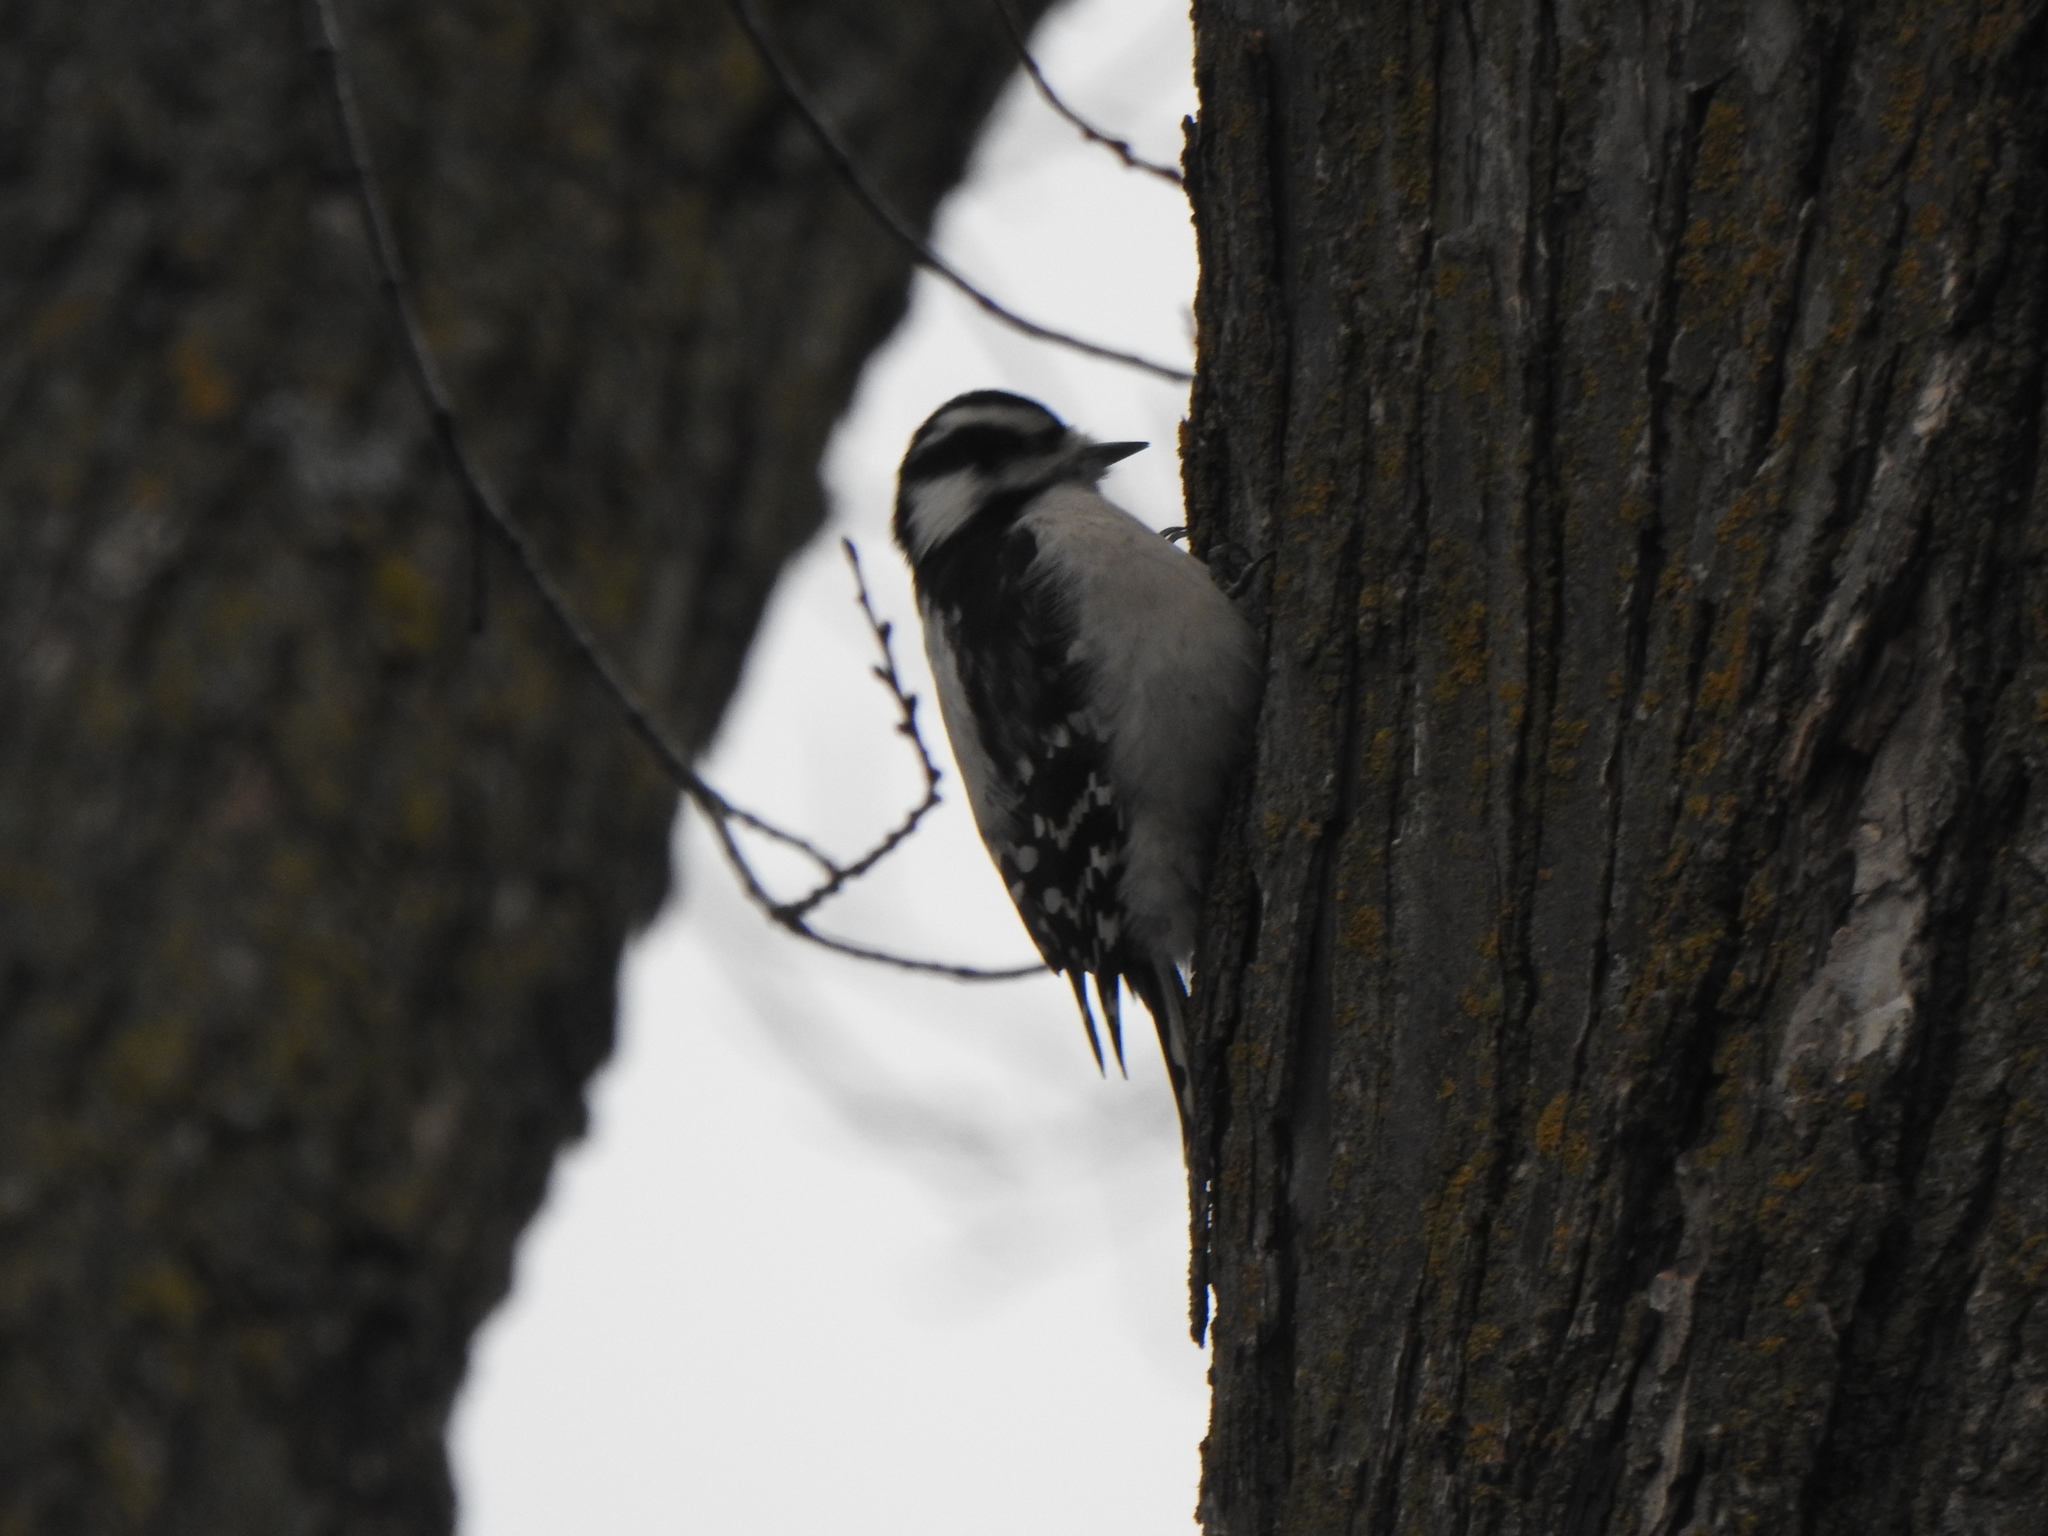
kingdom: Animalia
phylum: Chordata
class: Aves
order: Piciformes
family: Picidae
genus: Dryobates
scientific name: Dryobates pubescens
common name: Downy woodpecker
